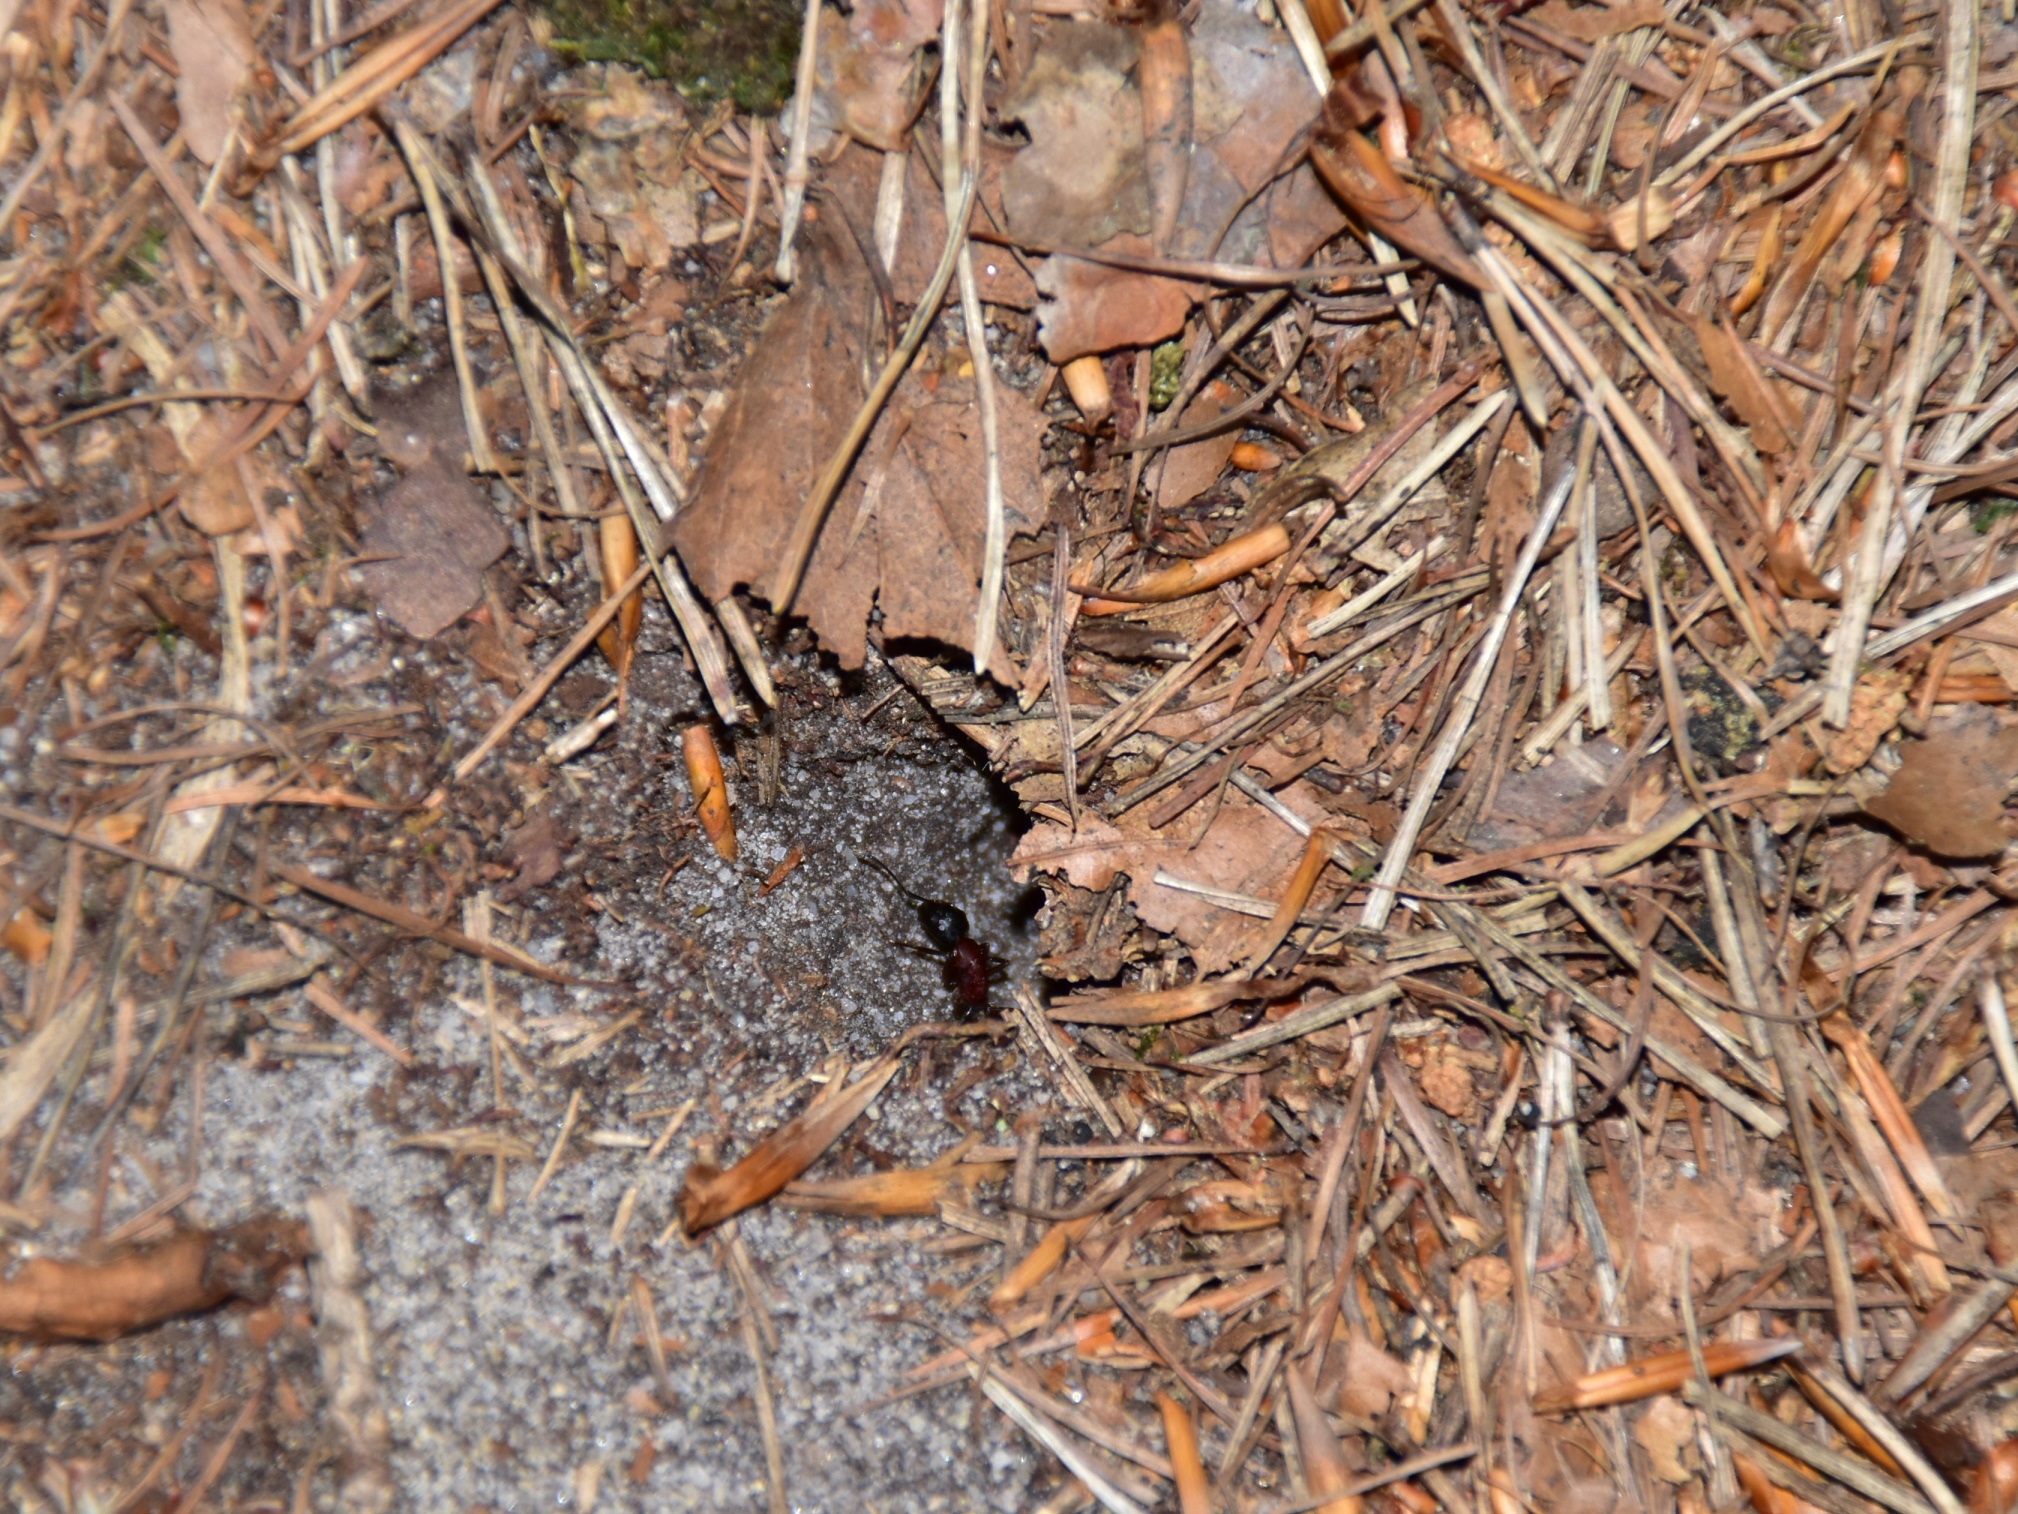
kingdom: Animalia
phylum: Arthropoda
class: Insecta
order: Hymenoptera
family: Formicidae
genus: Camponotus
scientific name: Camponotus ligniperdus
